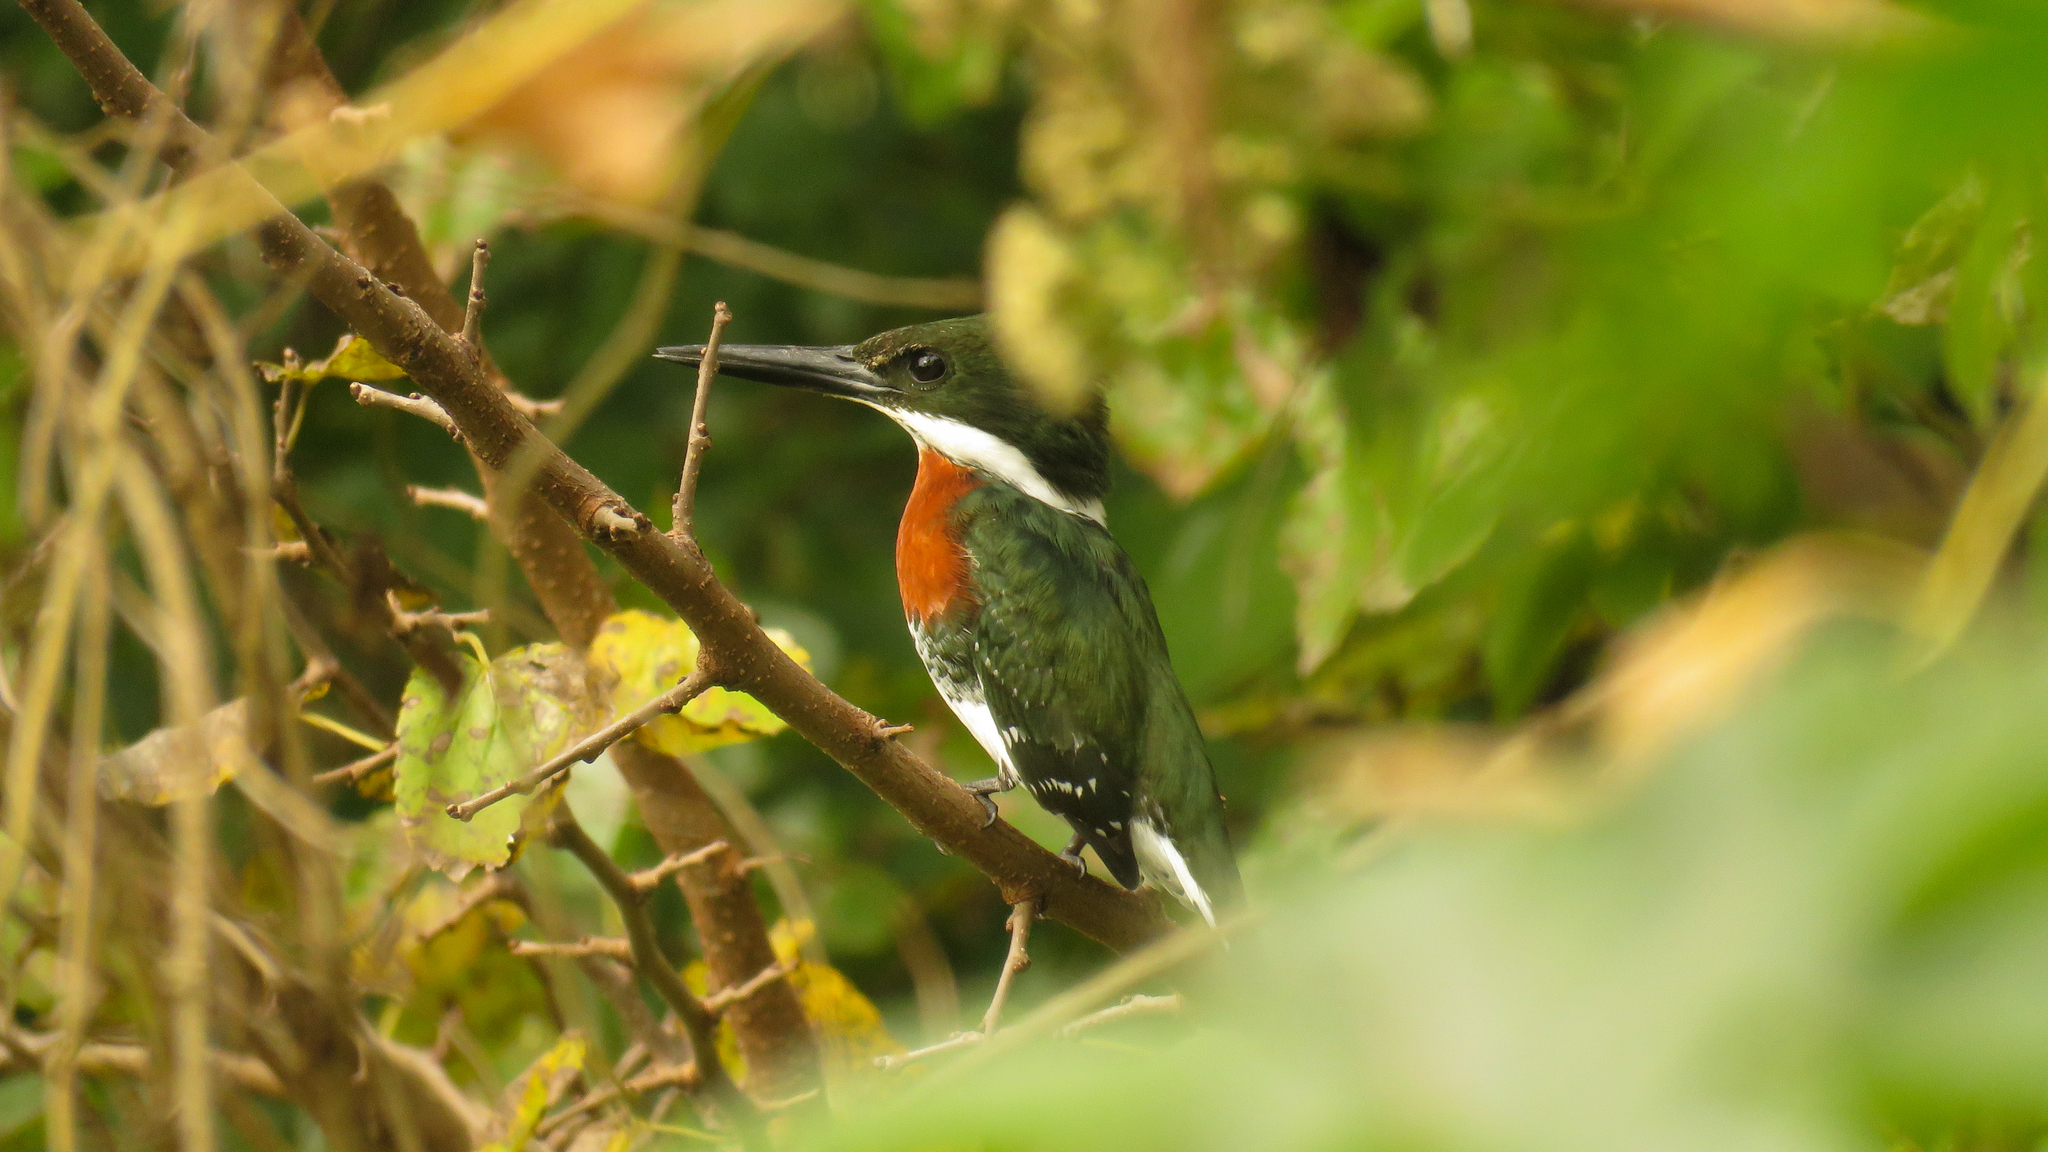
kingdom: Animalia
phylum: Chordata
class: Aves
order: Coraciiformes
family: Alcedinidae
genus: Chloroceryle
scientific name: Chloroceryle americana
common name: Green kingfisher
